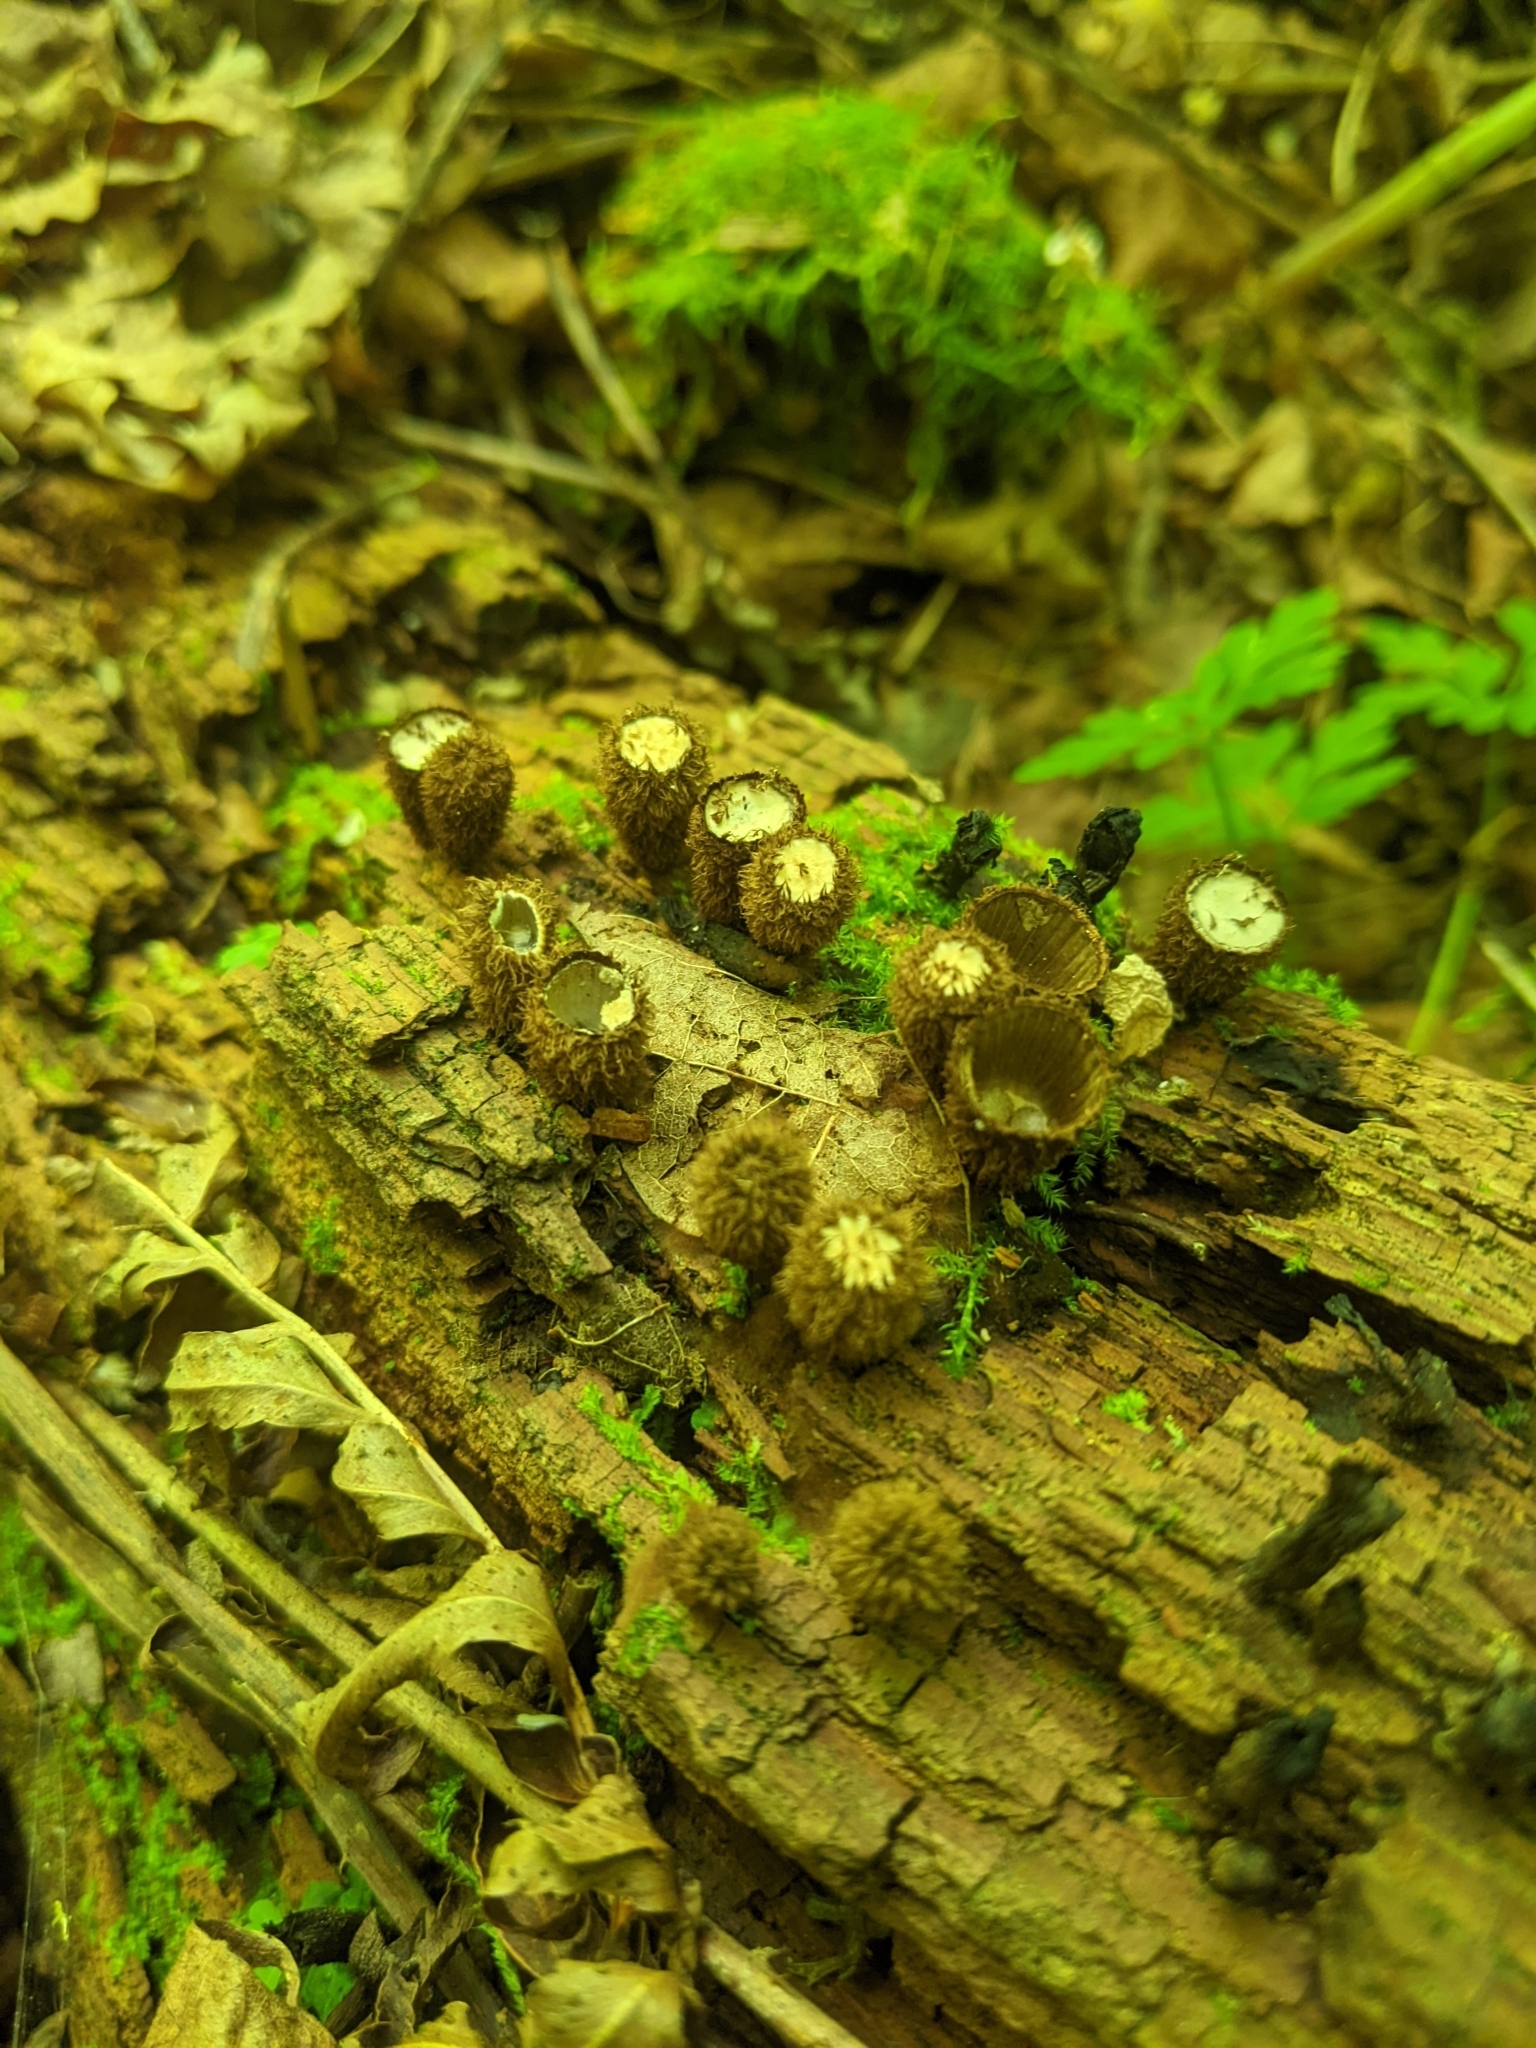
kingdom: Fungi
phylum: Basidiomycota
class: Agaricomycetes
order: Agaricales
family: Agaricaceae
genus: Cyathus
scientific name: Cyathus striatus
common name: Fluted bird's nest
